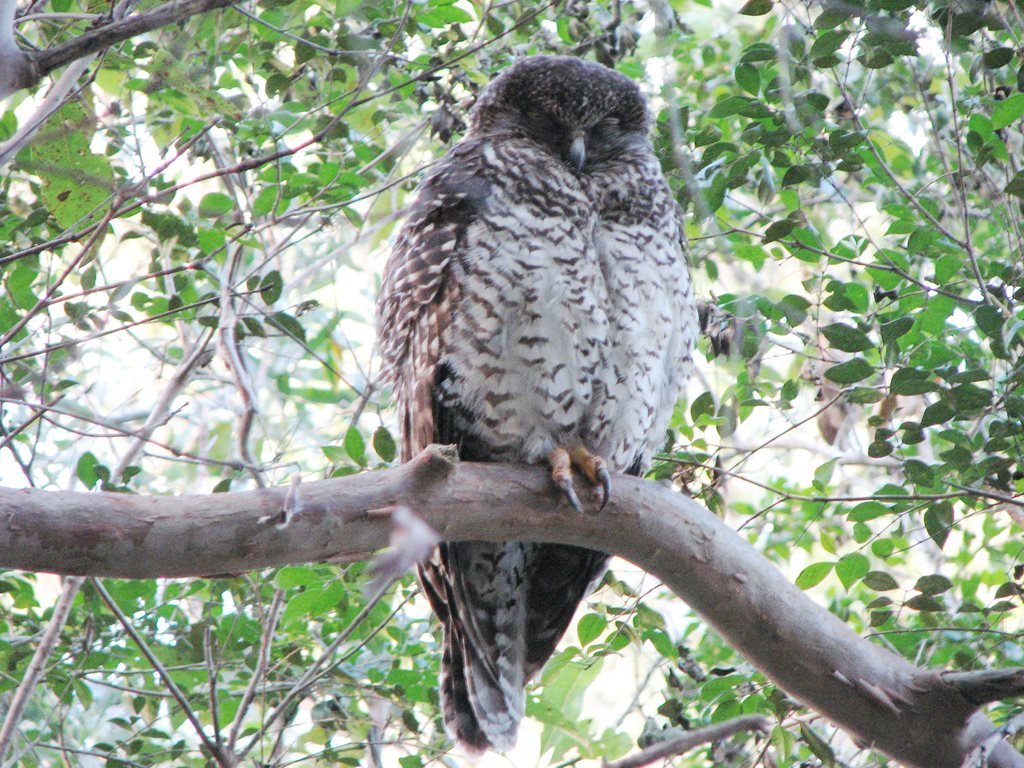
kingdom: Animalia
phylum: Chordata
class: Aves
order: Strigiformes
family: Strigidae
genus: Ninox
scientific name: Ninox strenua
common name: Powerful owl
